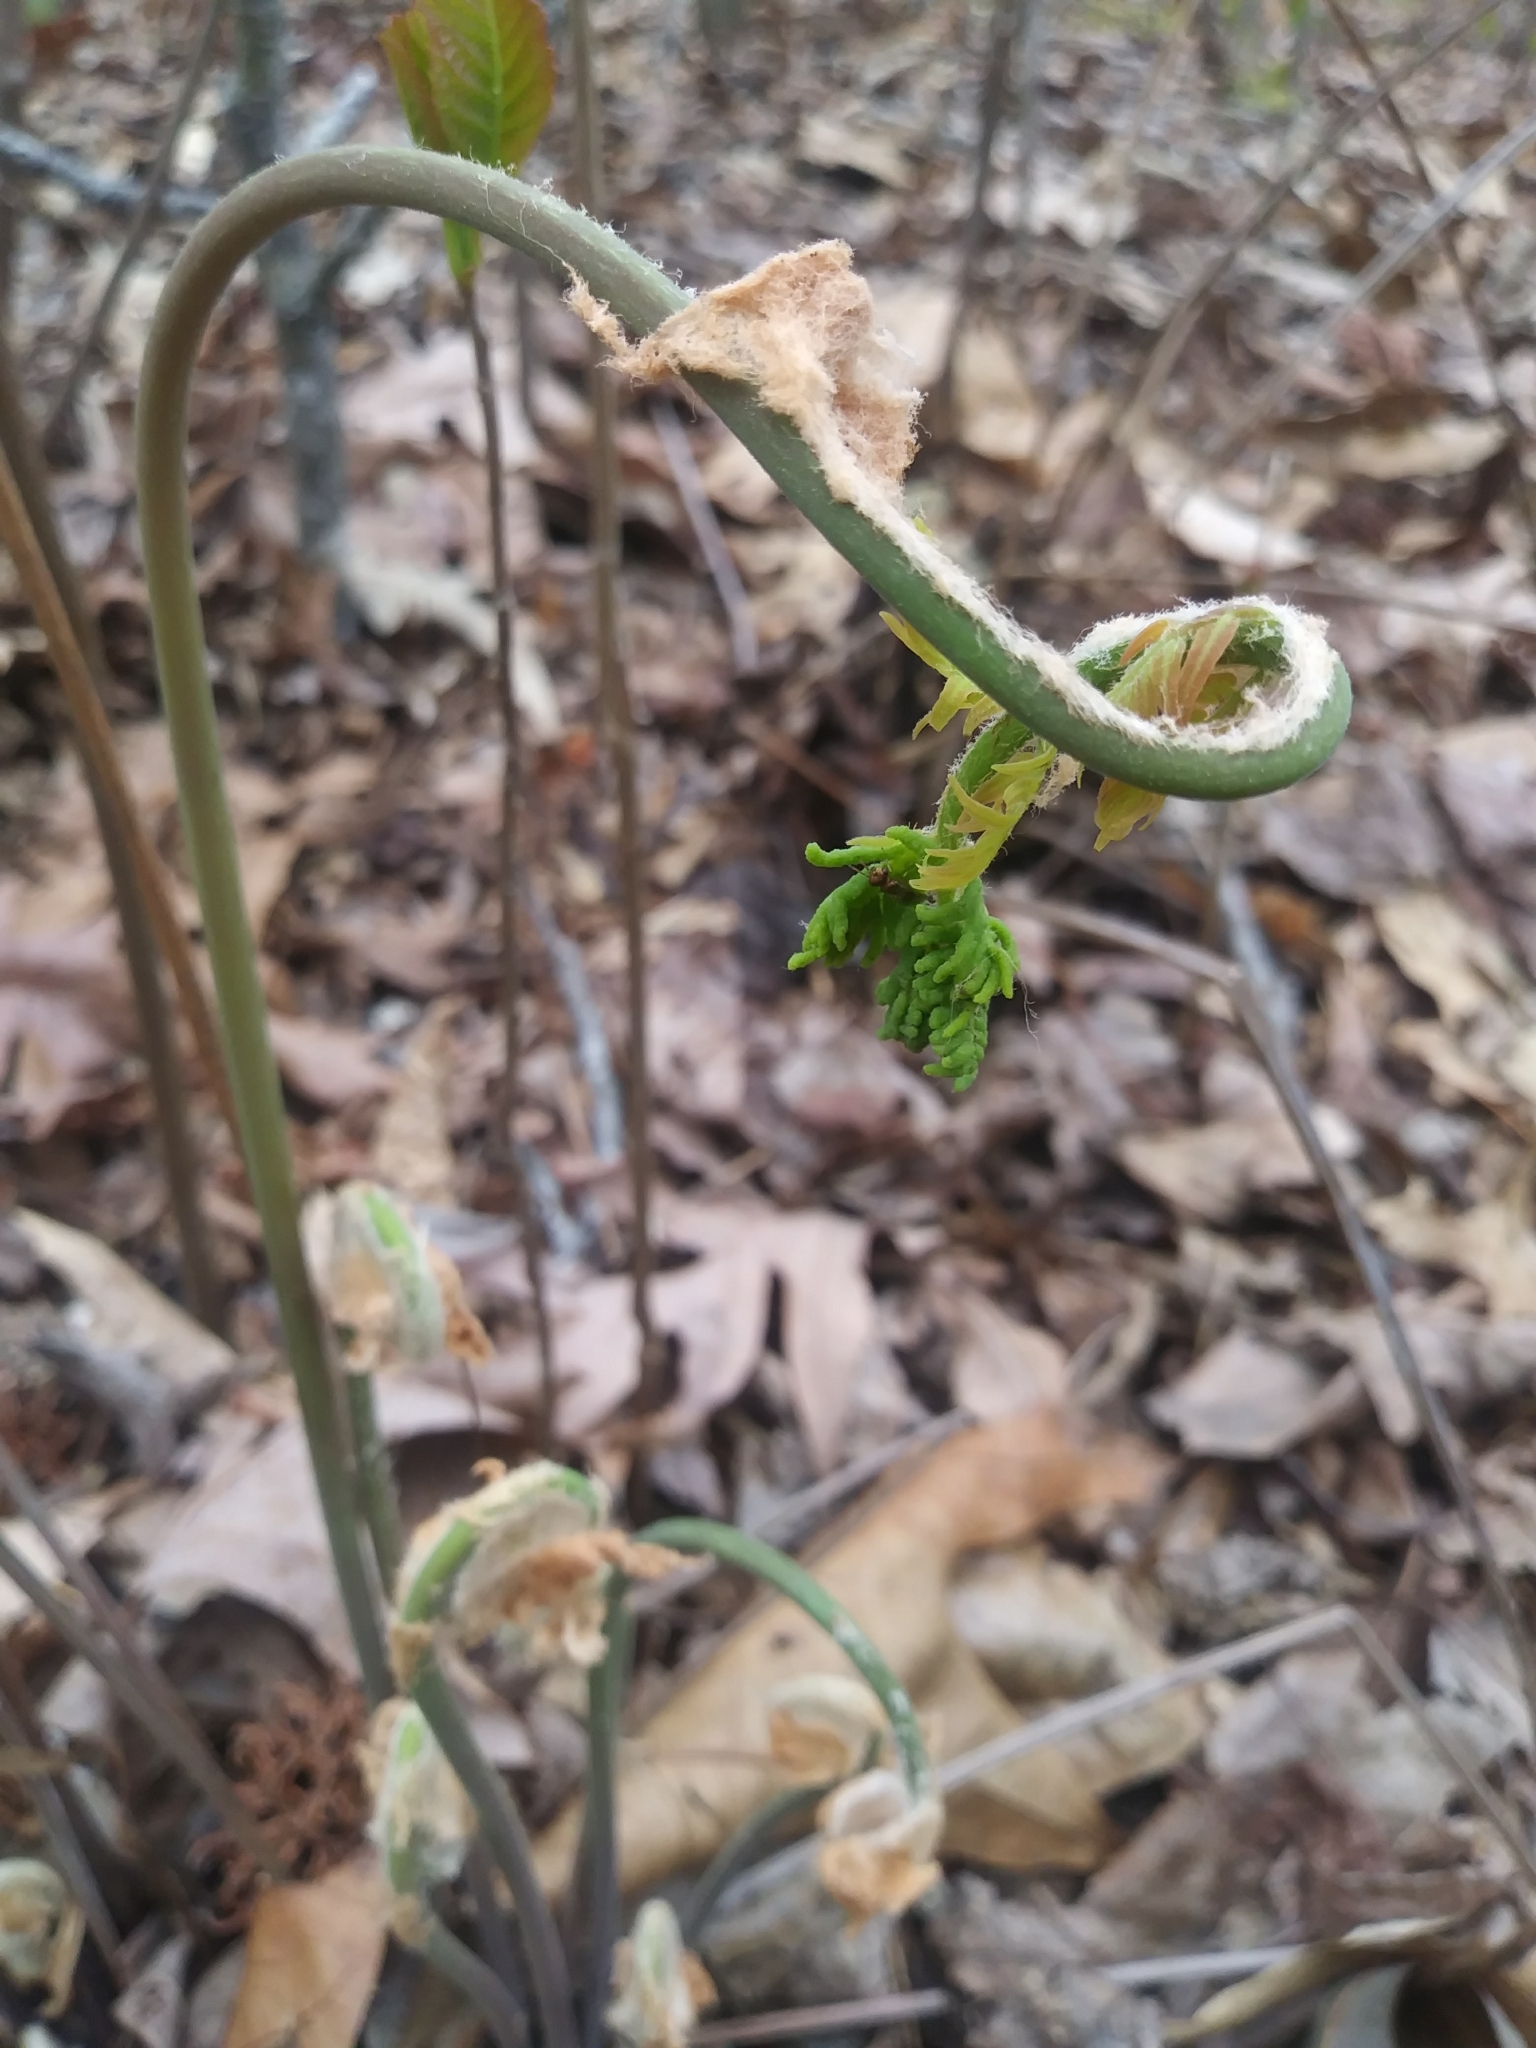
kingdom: Plantae
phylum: Tracheophyta
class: Polypodiopsida
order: Osmundales
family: Osmundaceae
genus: Osmunda
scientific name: Osmunda spectabilis
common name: American royal fern
